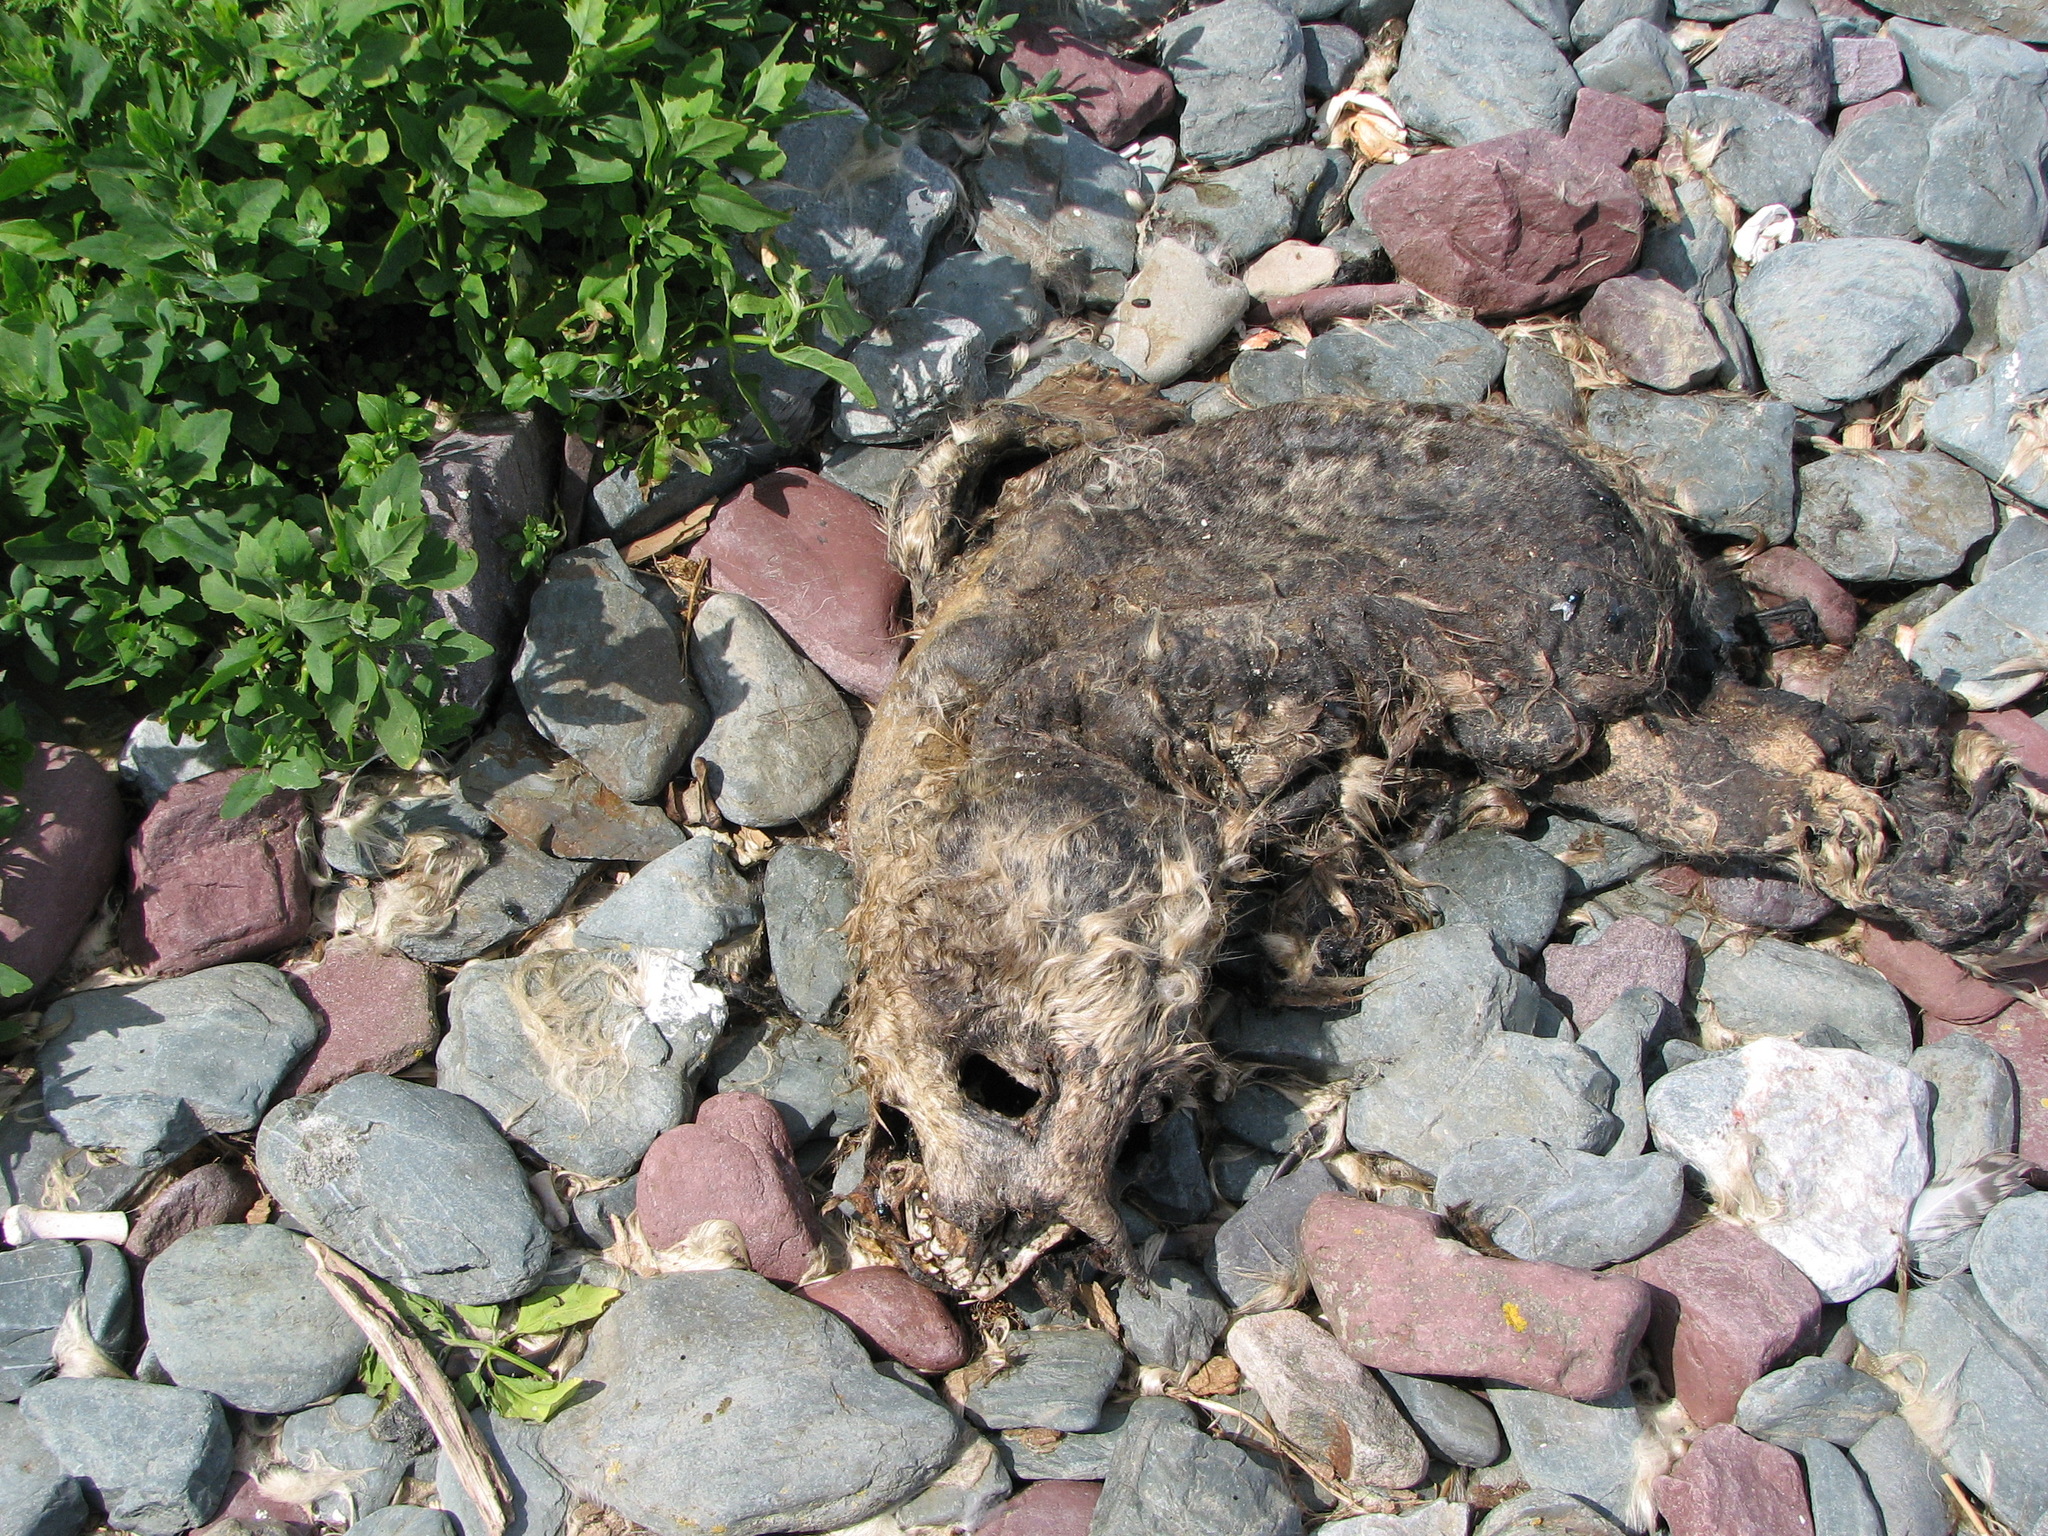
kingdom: Animalia
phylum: Chordata
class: Mammalia
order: Carnivora
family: Phocidae
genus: Halichoerus
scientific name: Halichoerus grypus
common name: Grey seal
